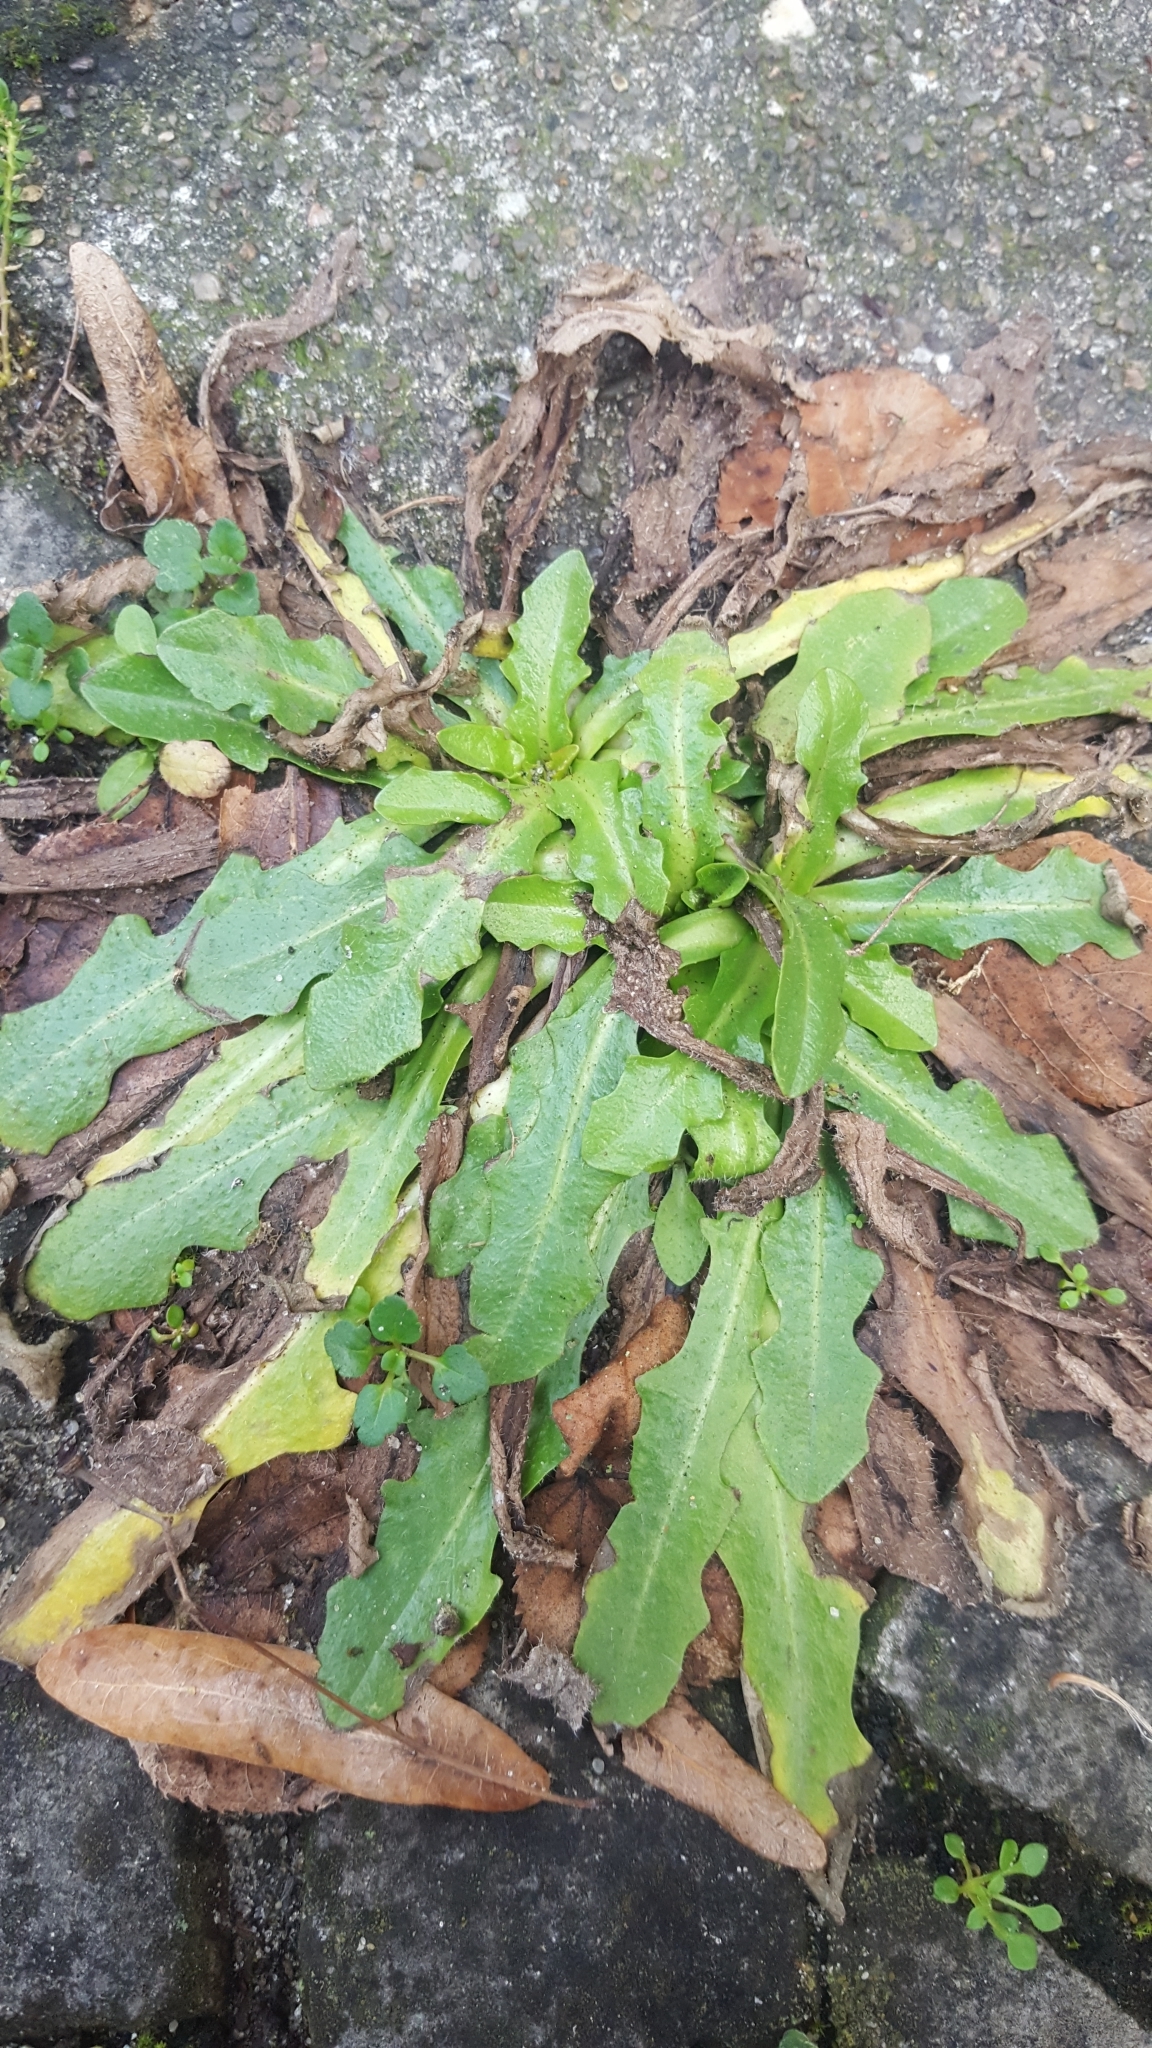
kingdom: Plantae
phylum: Tracheophyta
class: Magnoliopsida
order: Asterales
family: Asteraceae
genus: Hypochaeris
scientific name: Hypochaeris radicata
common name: Flatweed
